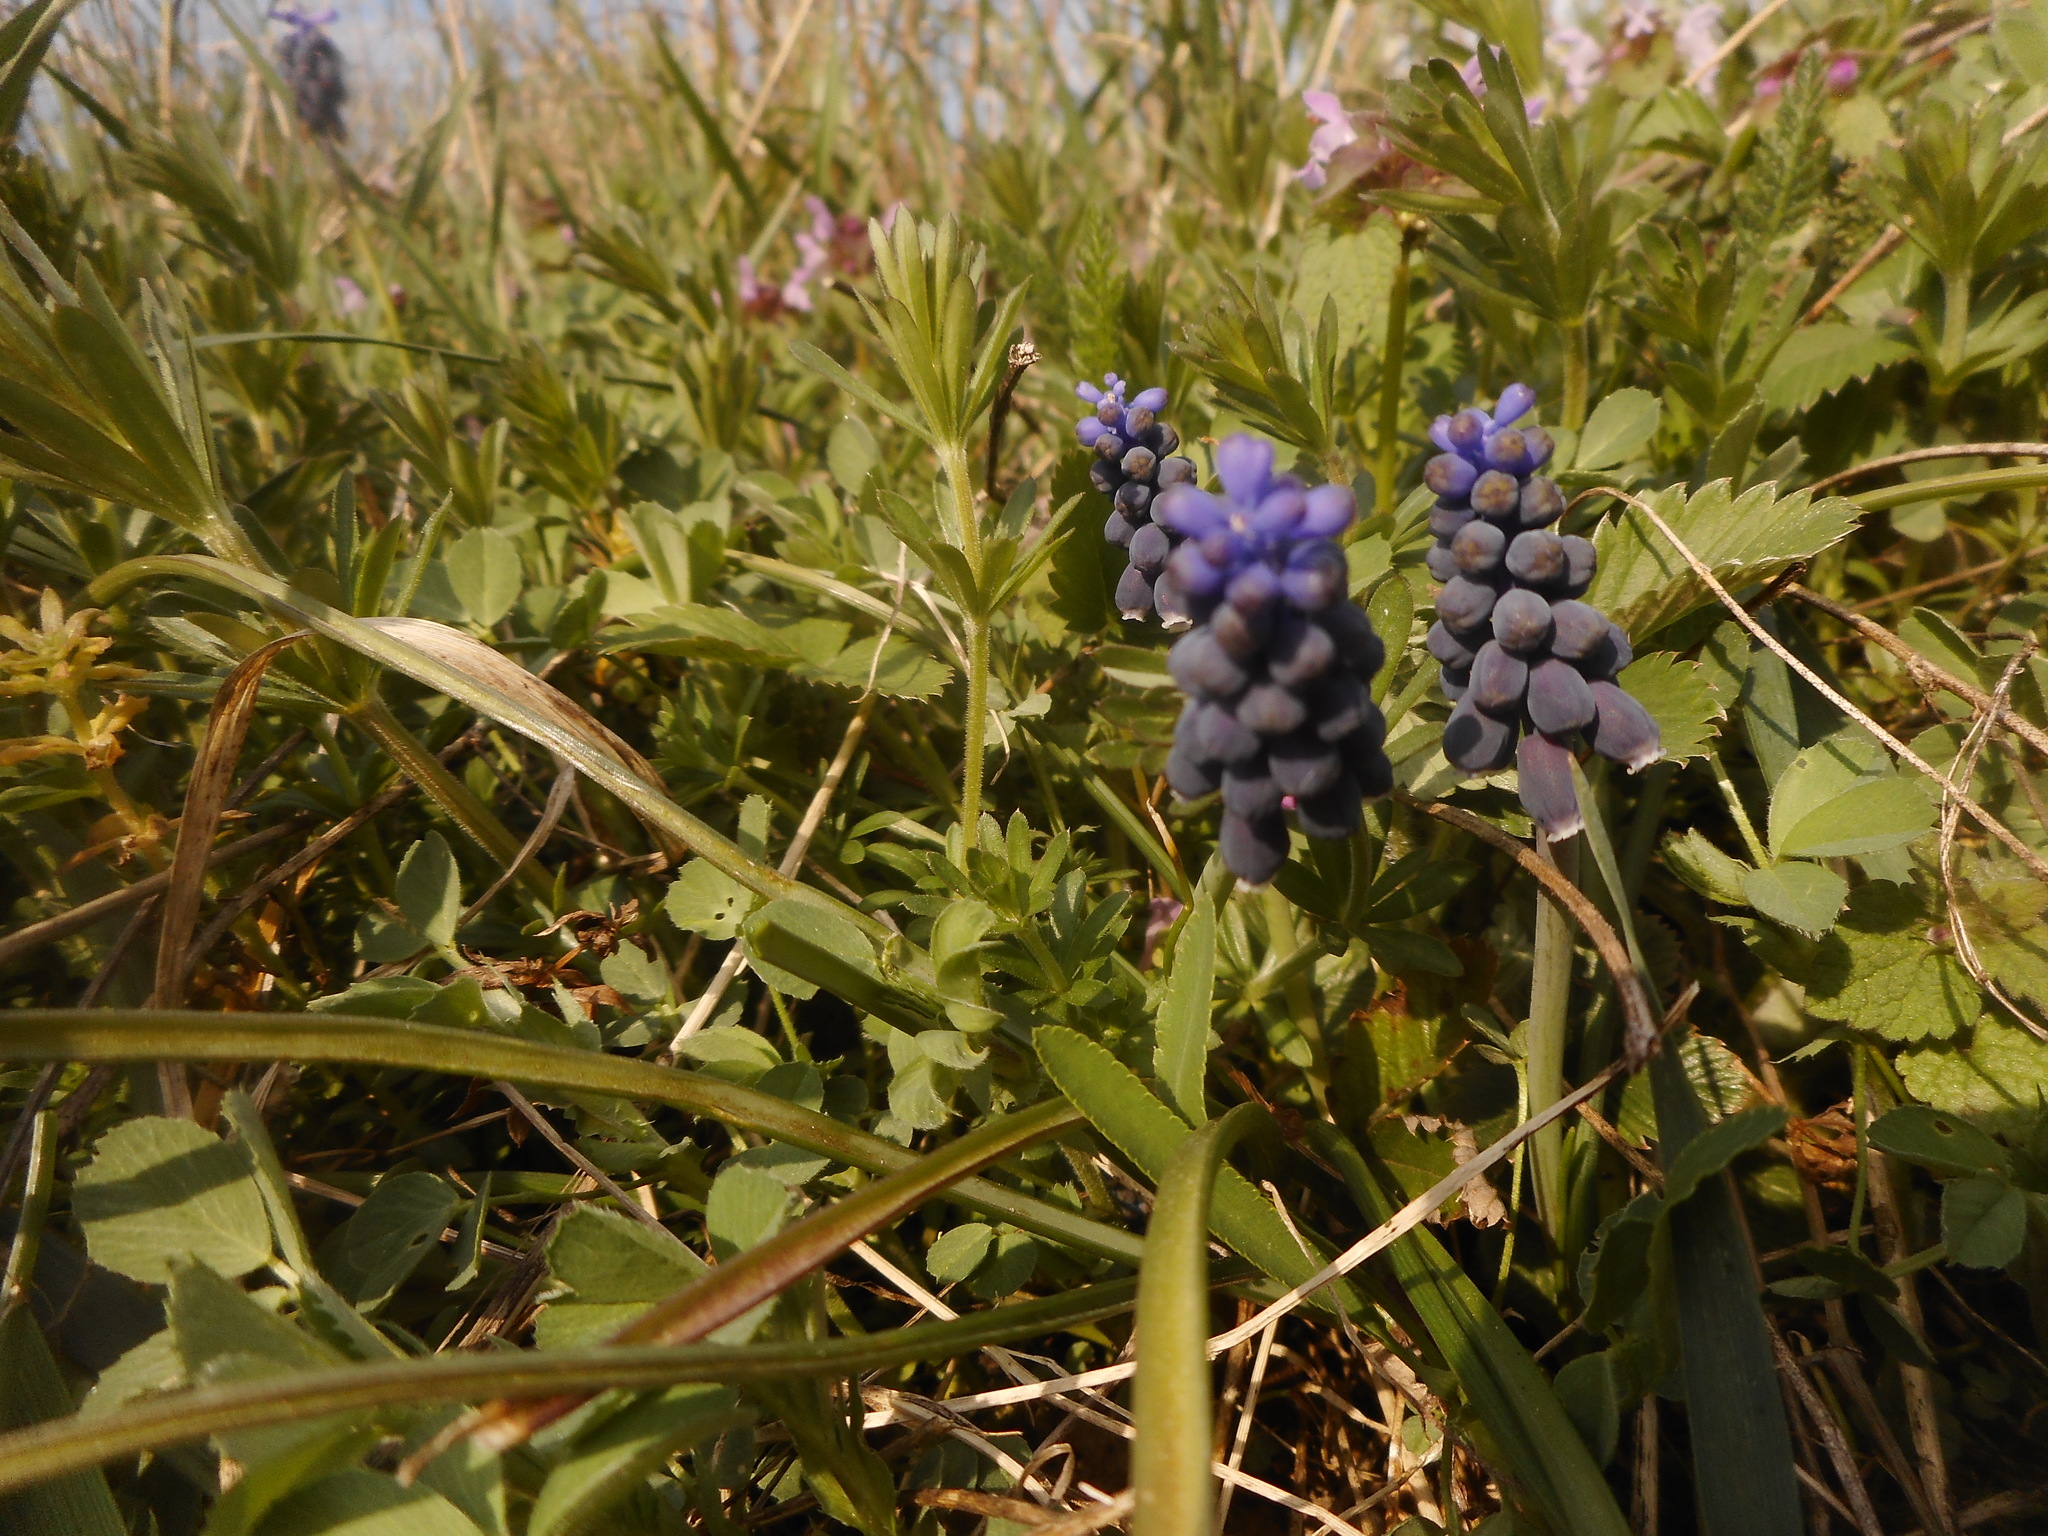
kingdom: Plantae
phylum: Tracheophyta
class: Liliopsida
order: Asparagales
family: Asparagaceae
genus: Muscari
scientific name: Muscari neglectum
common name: Grape-hyacinth
